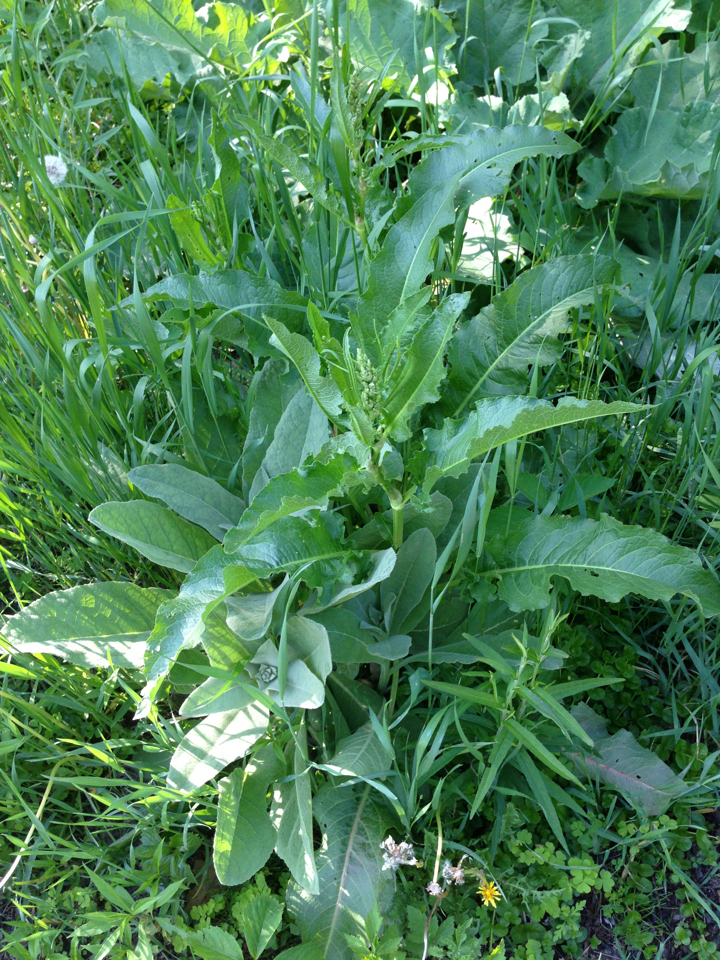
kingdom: Plantae
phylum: Tracheophyta
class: Magnoliopsida
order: Caryophyllales
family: Polygonaceae
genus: Rumex
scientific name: Rumex crispus
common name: Curled dock
